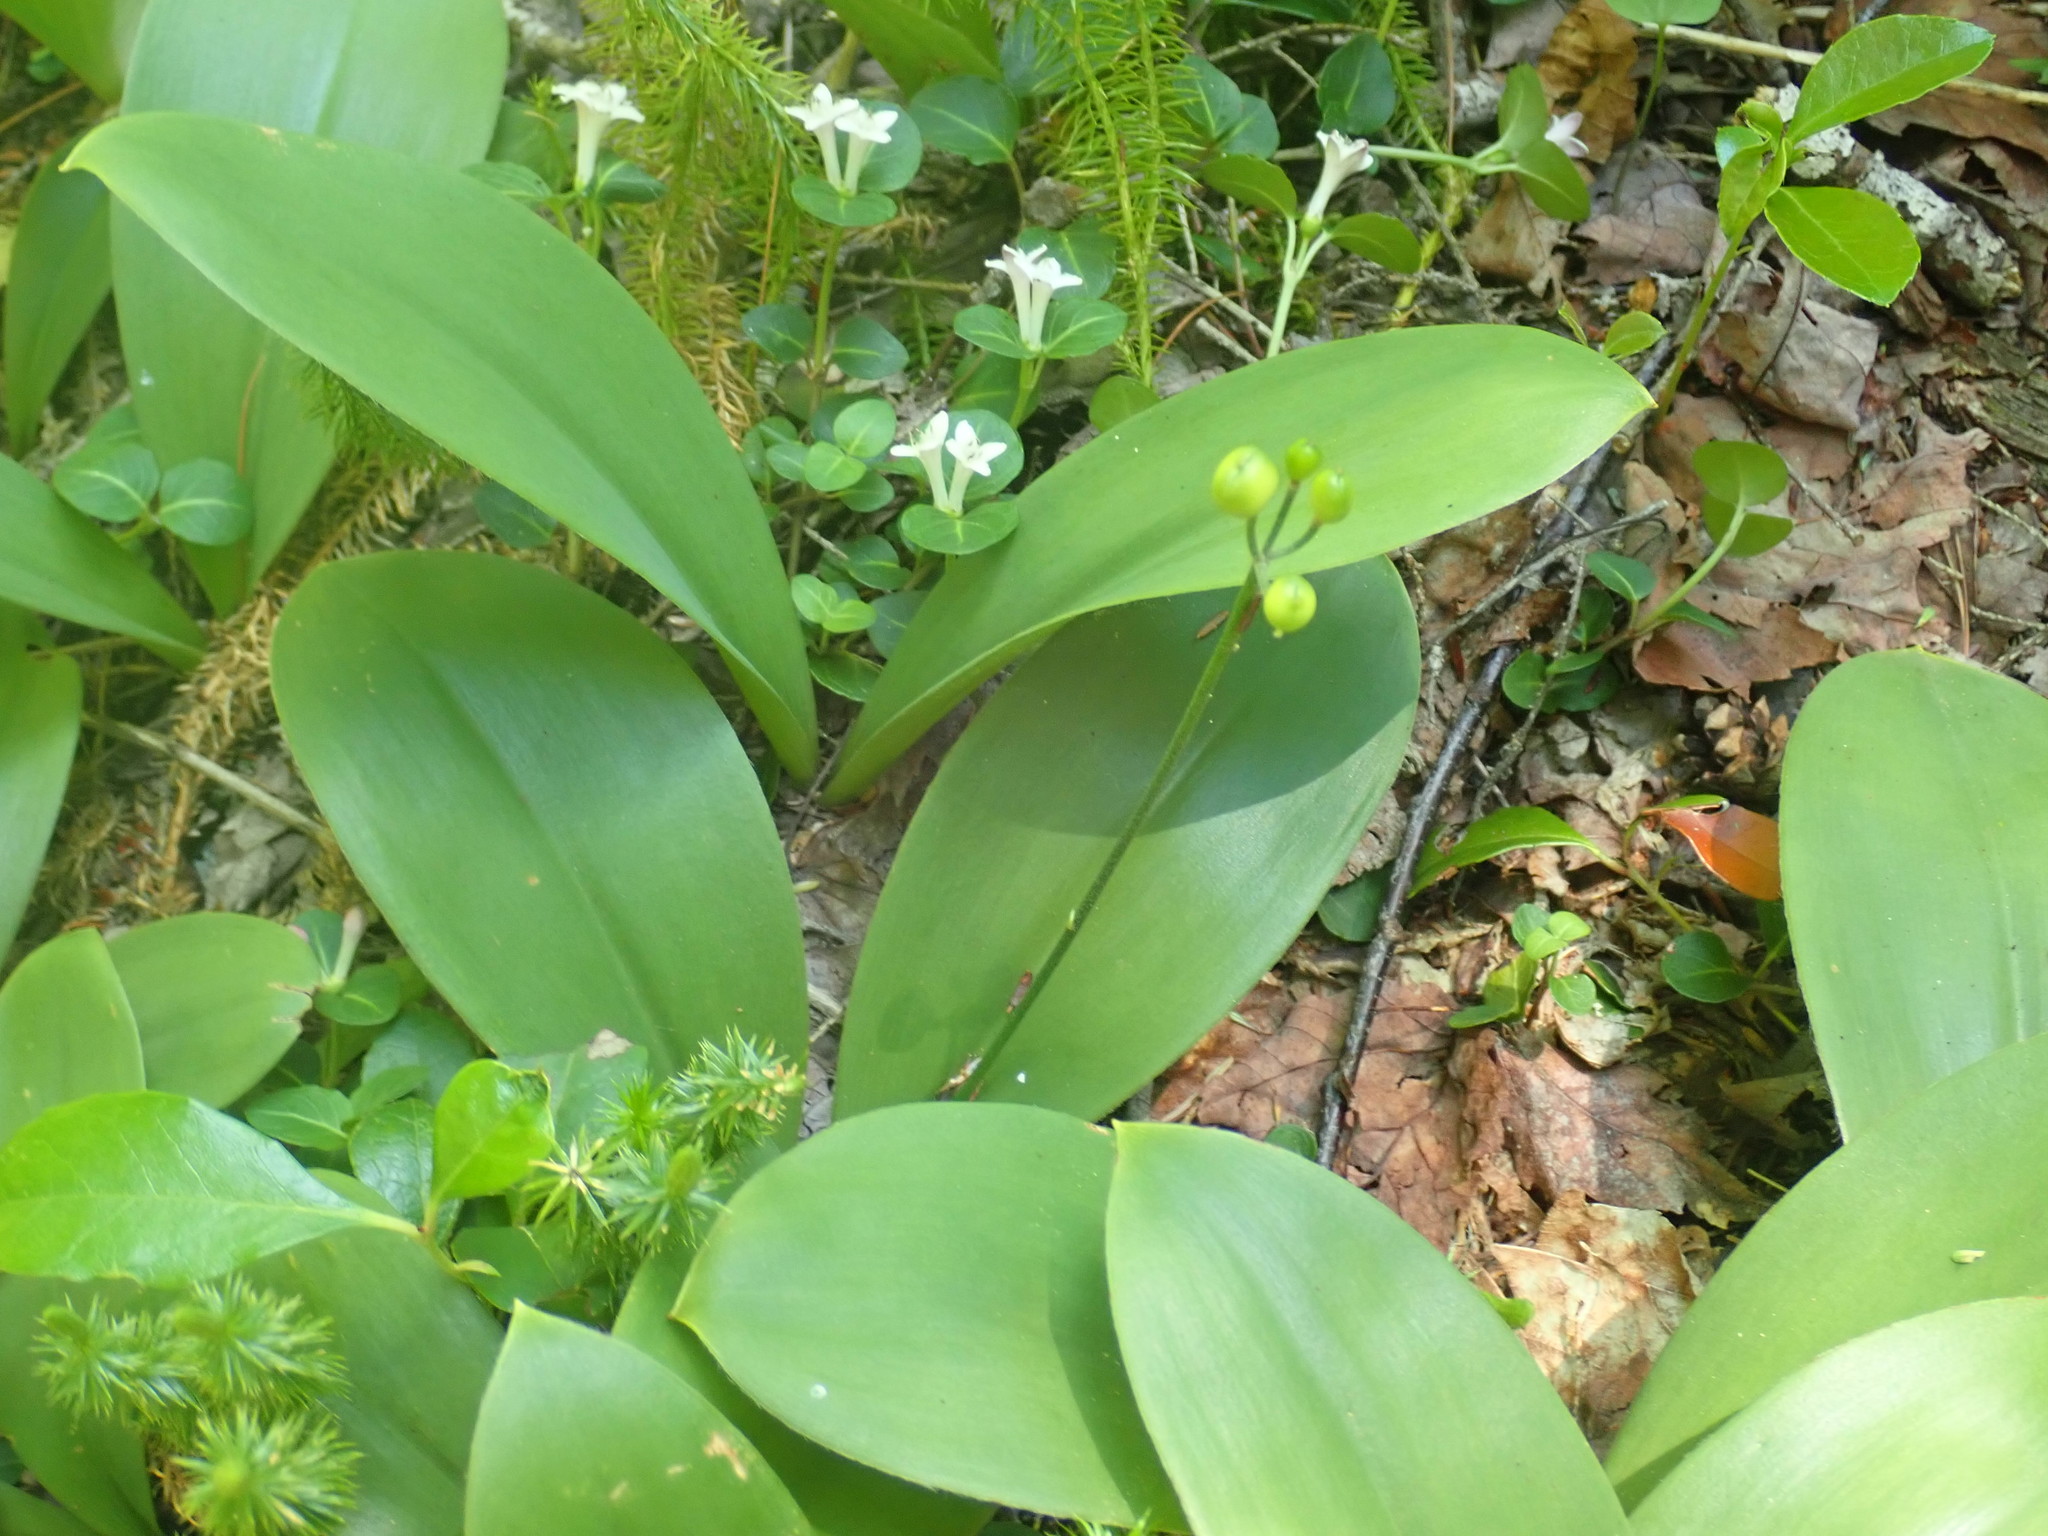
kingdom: Plantae
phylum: Tracheophyta
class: Liliopsida
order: Liliales
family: Liliaceae
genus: Clintonia
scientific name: Clintonia borealis
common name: Yellow clintonia
